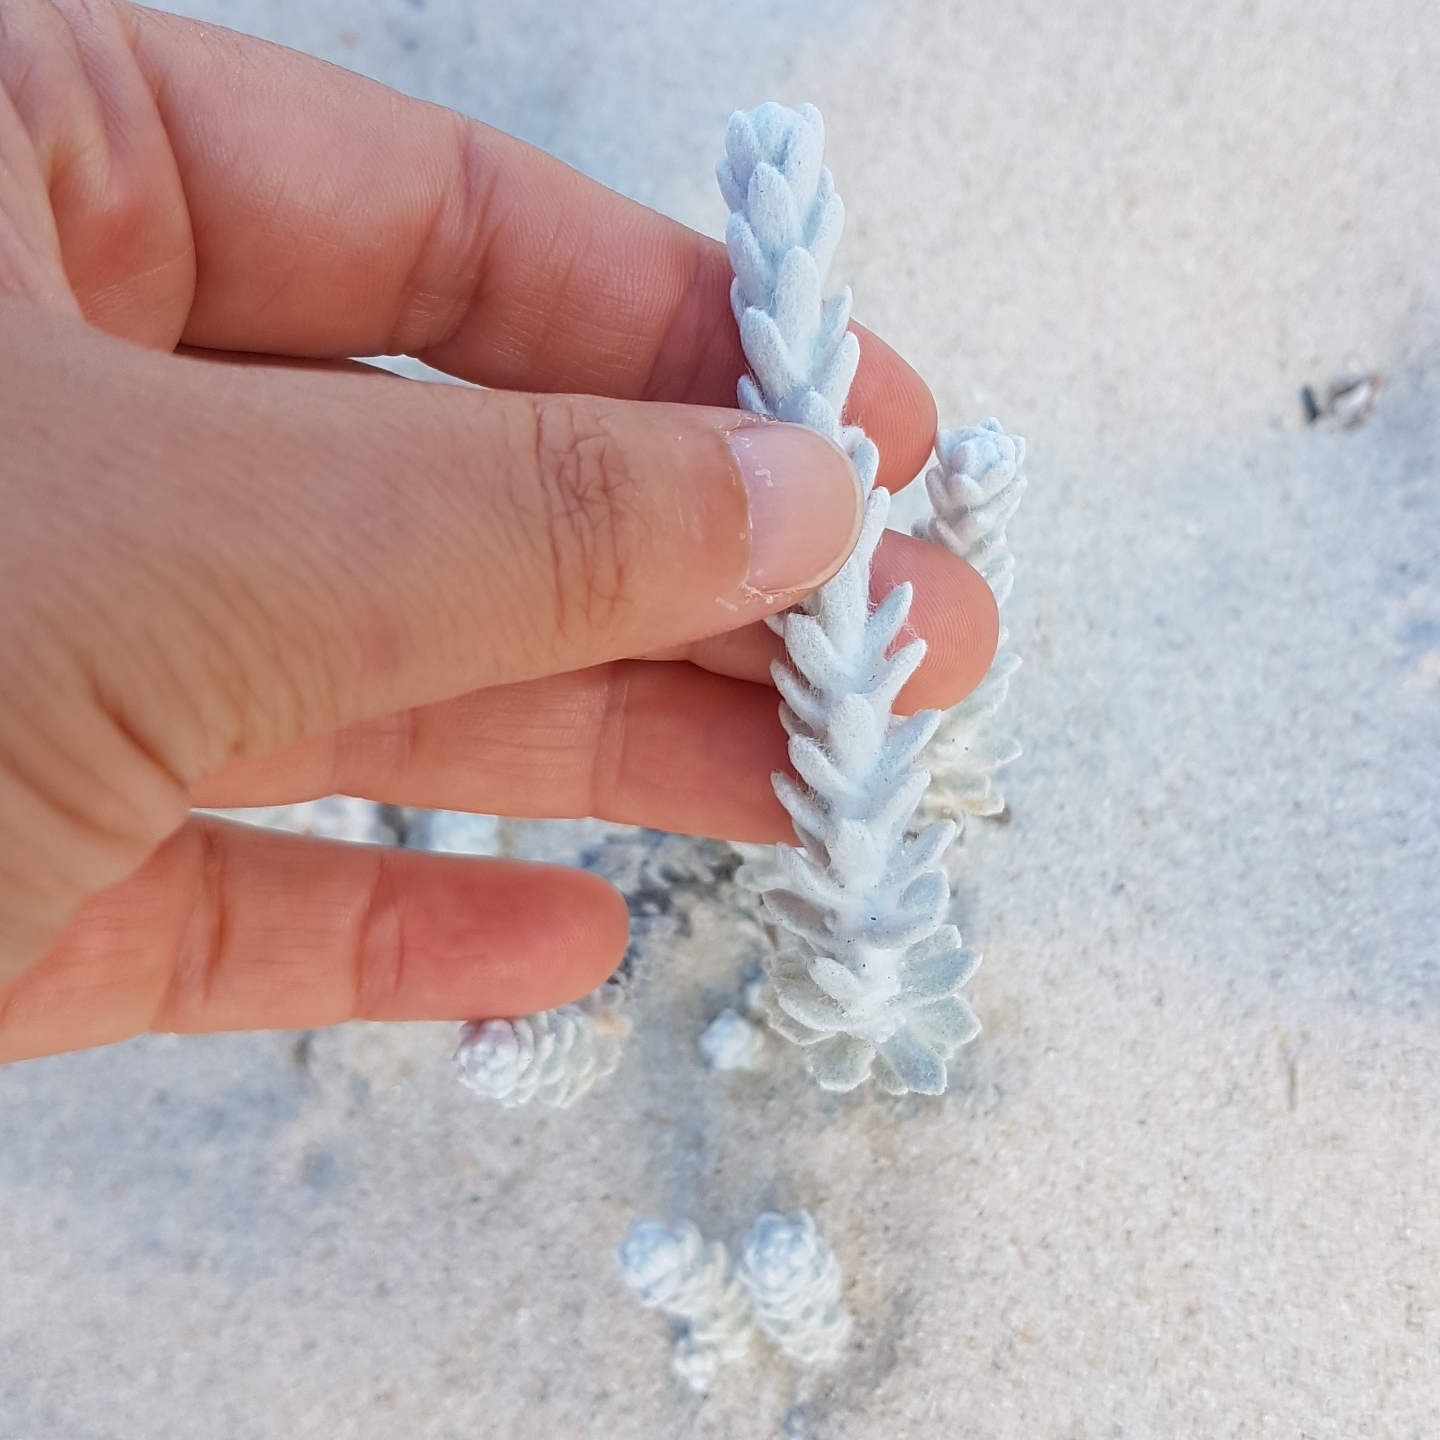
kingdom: Plantae
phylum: Tracheophyta
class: Magnoliopsida
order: Asterales
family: Asteraceae
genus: Achillea
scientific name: Achillea maritima
